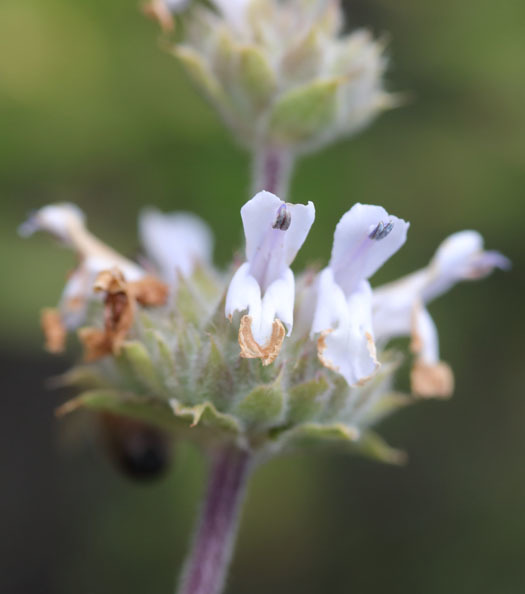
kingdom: Plantae
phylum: Tracheophyta
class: Magnoliopsida
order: Lamiales
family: Lamiaceae
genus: Salvia
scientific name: Salvia mellifera
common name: Black sage
